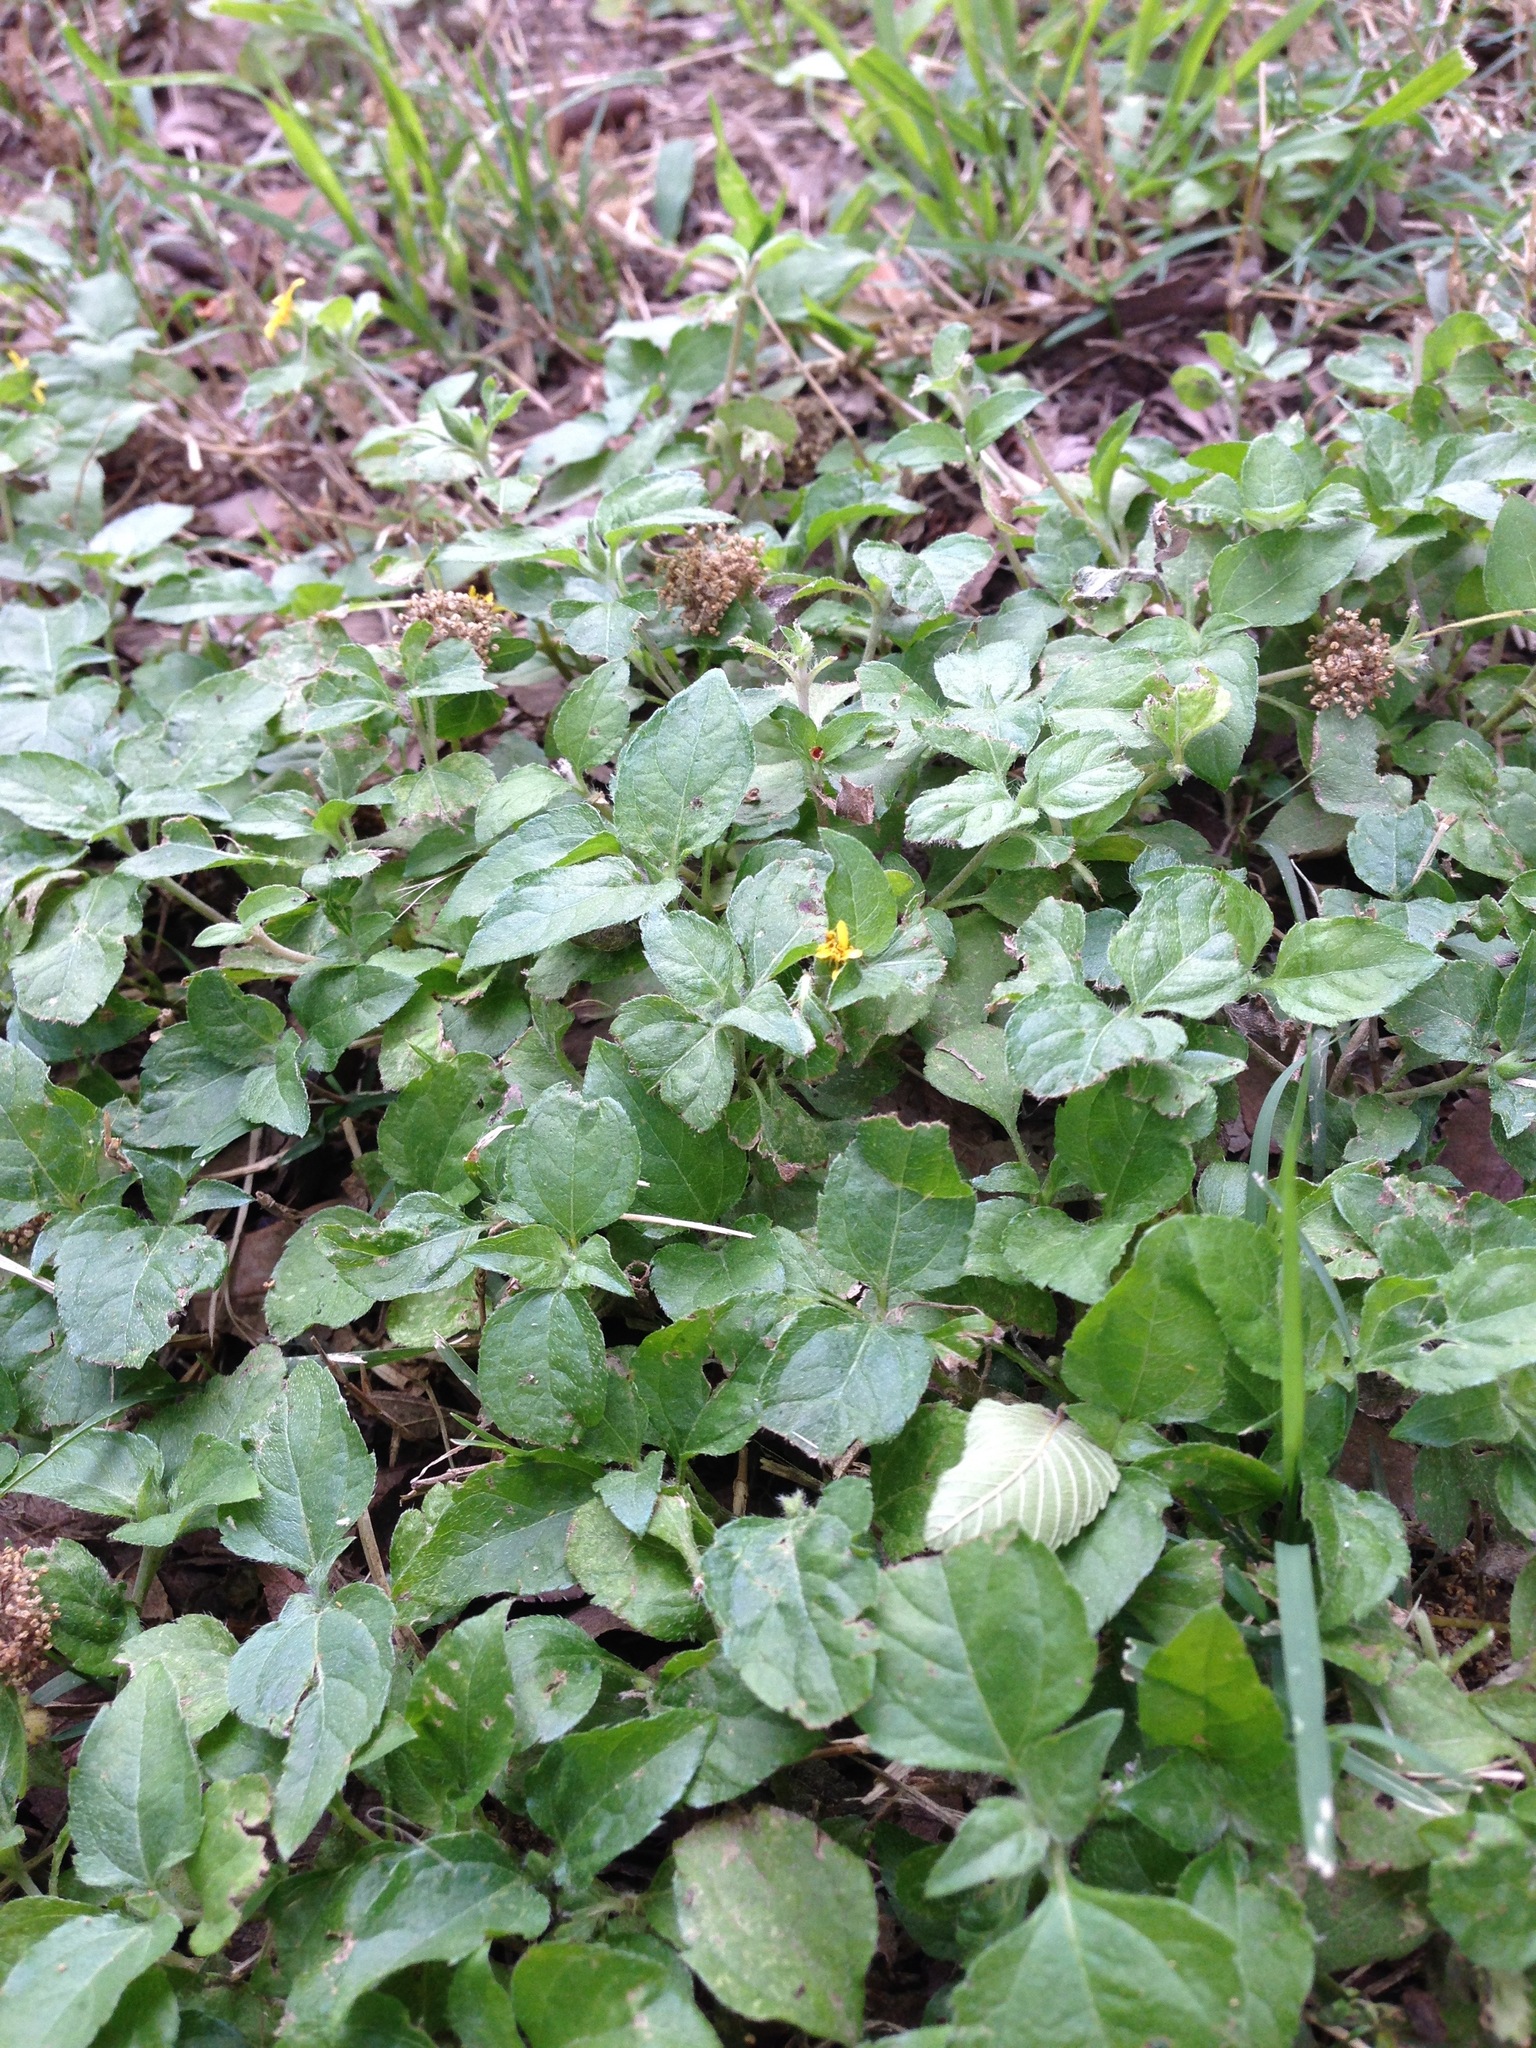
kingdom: Plantae
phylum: Tracheophyta
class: Magnoliopsida
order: Asterales
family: Asteraceae
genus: Calyptocarpus
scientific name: Calyptocarpus vialis
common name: Straggler daisy
